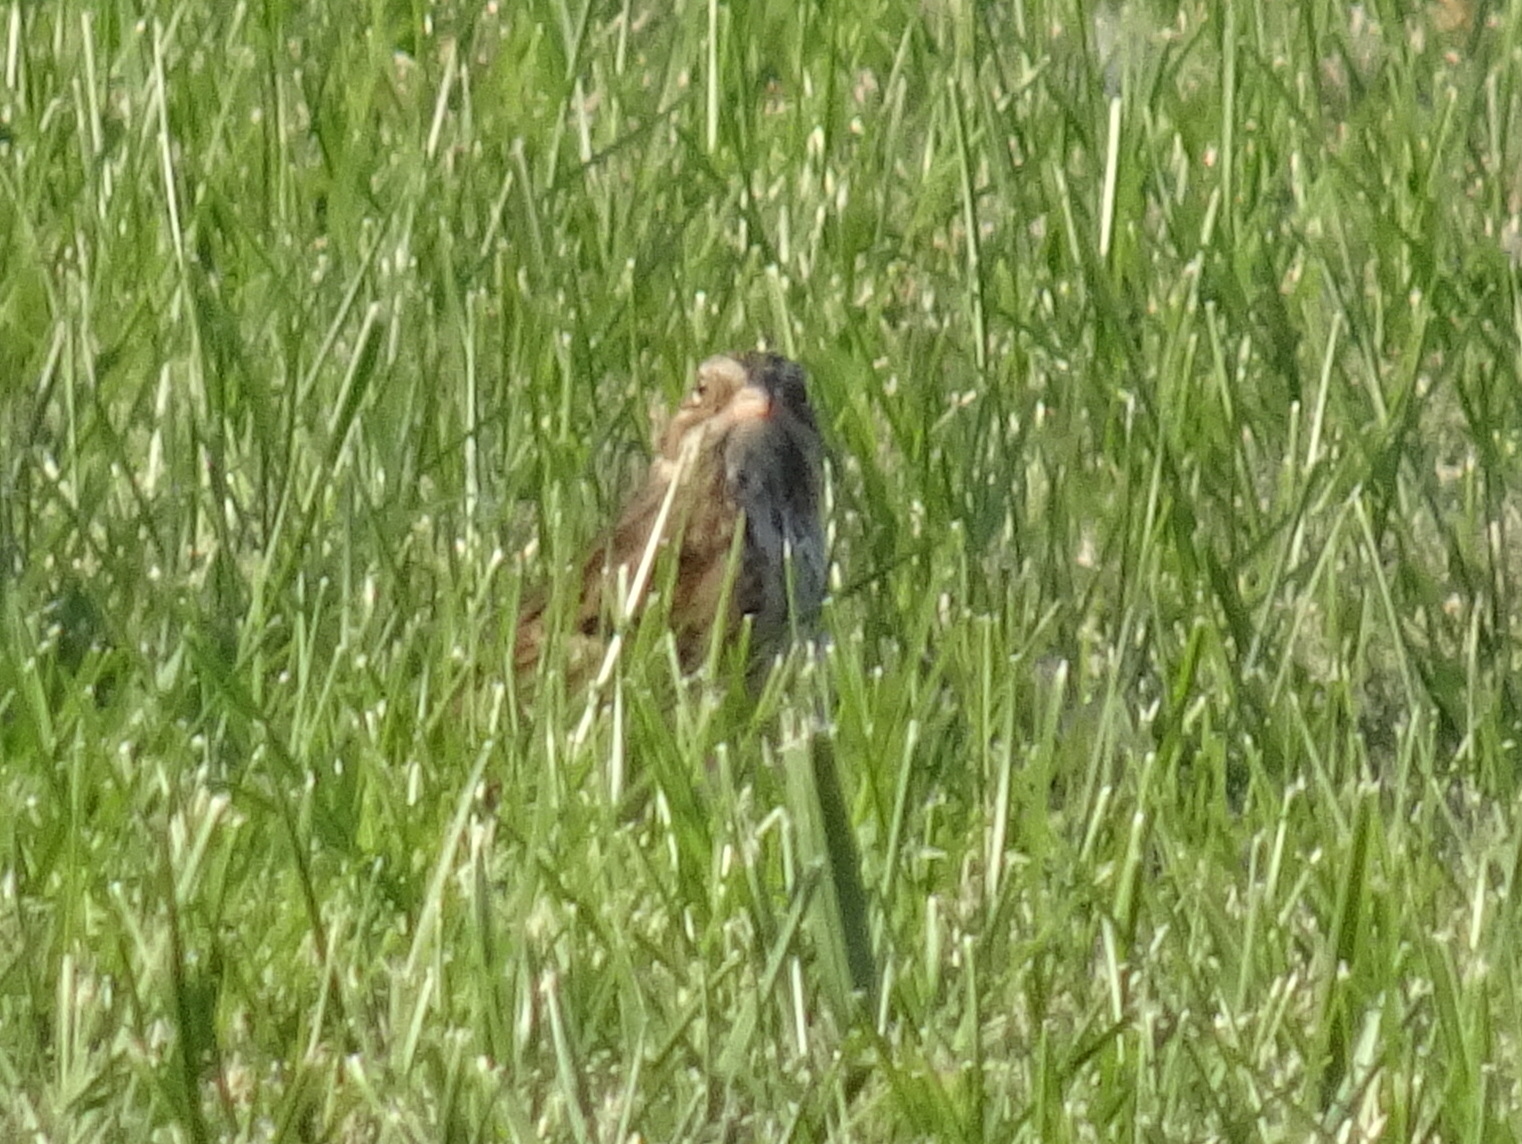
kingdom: Animalia
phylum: Chordata
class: Aves
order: Passeriformes
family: Passerellidae
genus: Pooecetes
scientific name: Pooecetes gramineus
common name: Vesper sparrow
